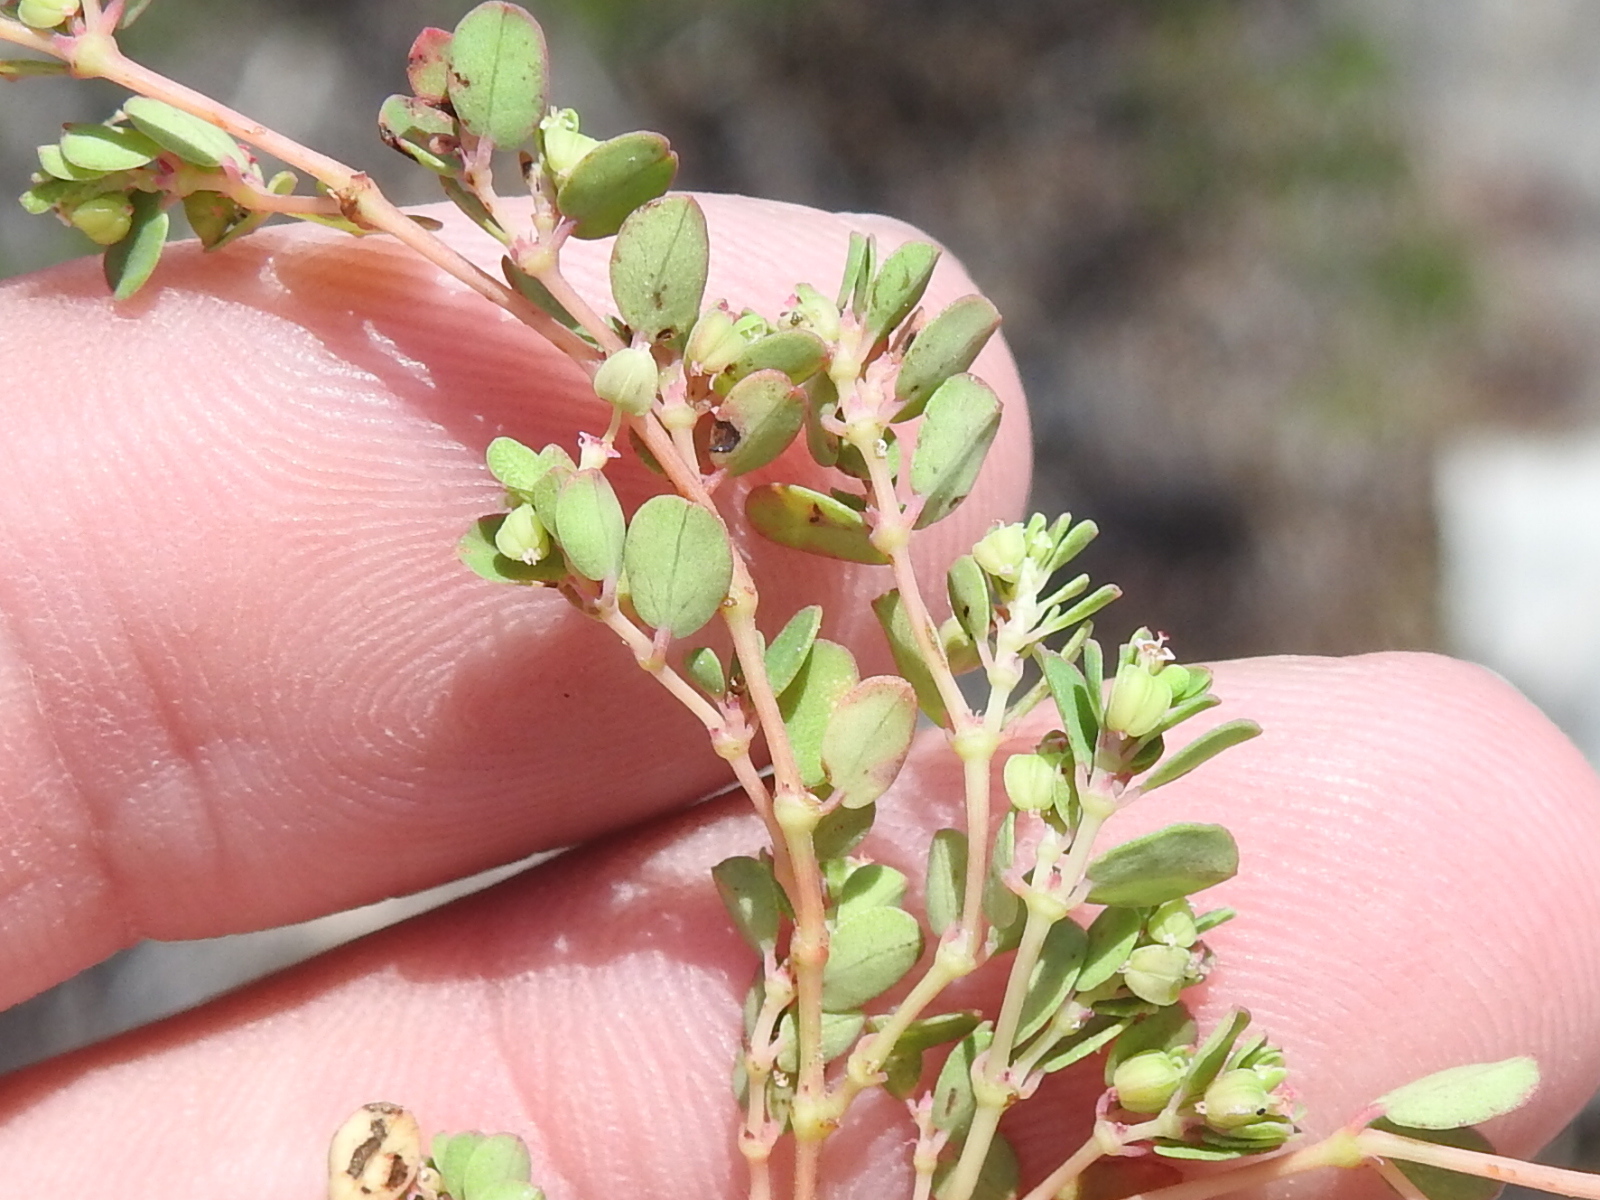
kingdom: Plantae
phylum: Tracheophyta
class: Magnoliopsida
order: Malpighiales
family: Euphorbiaceae
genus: Euphorbia
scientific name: Euphorbia serpens
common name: Matted sandmat
